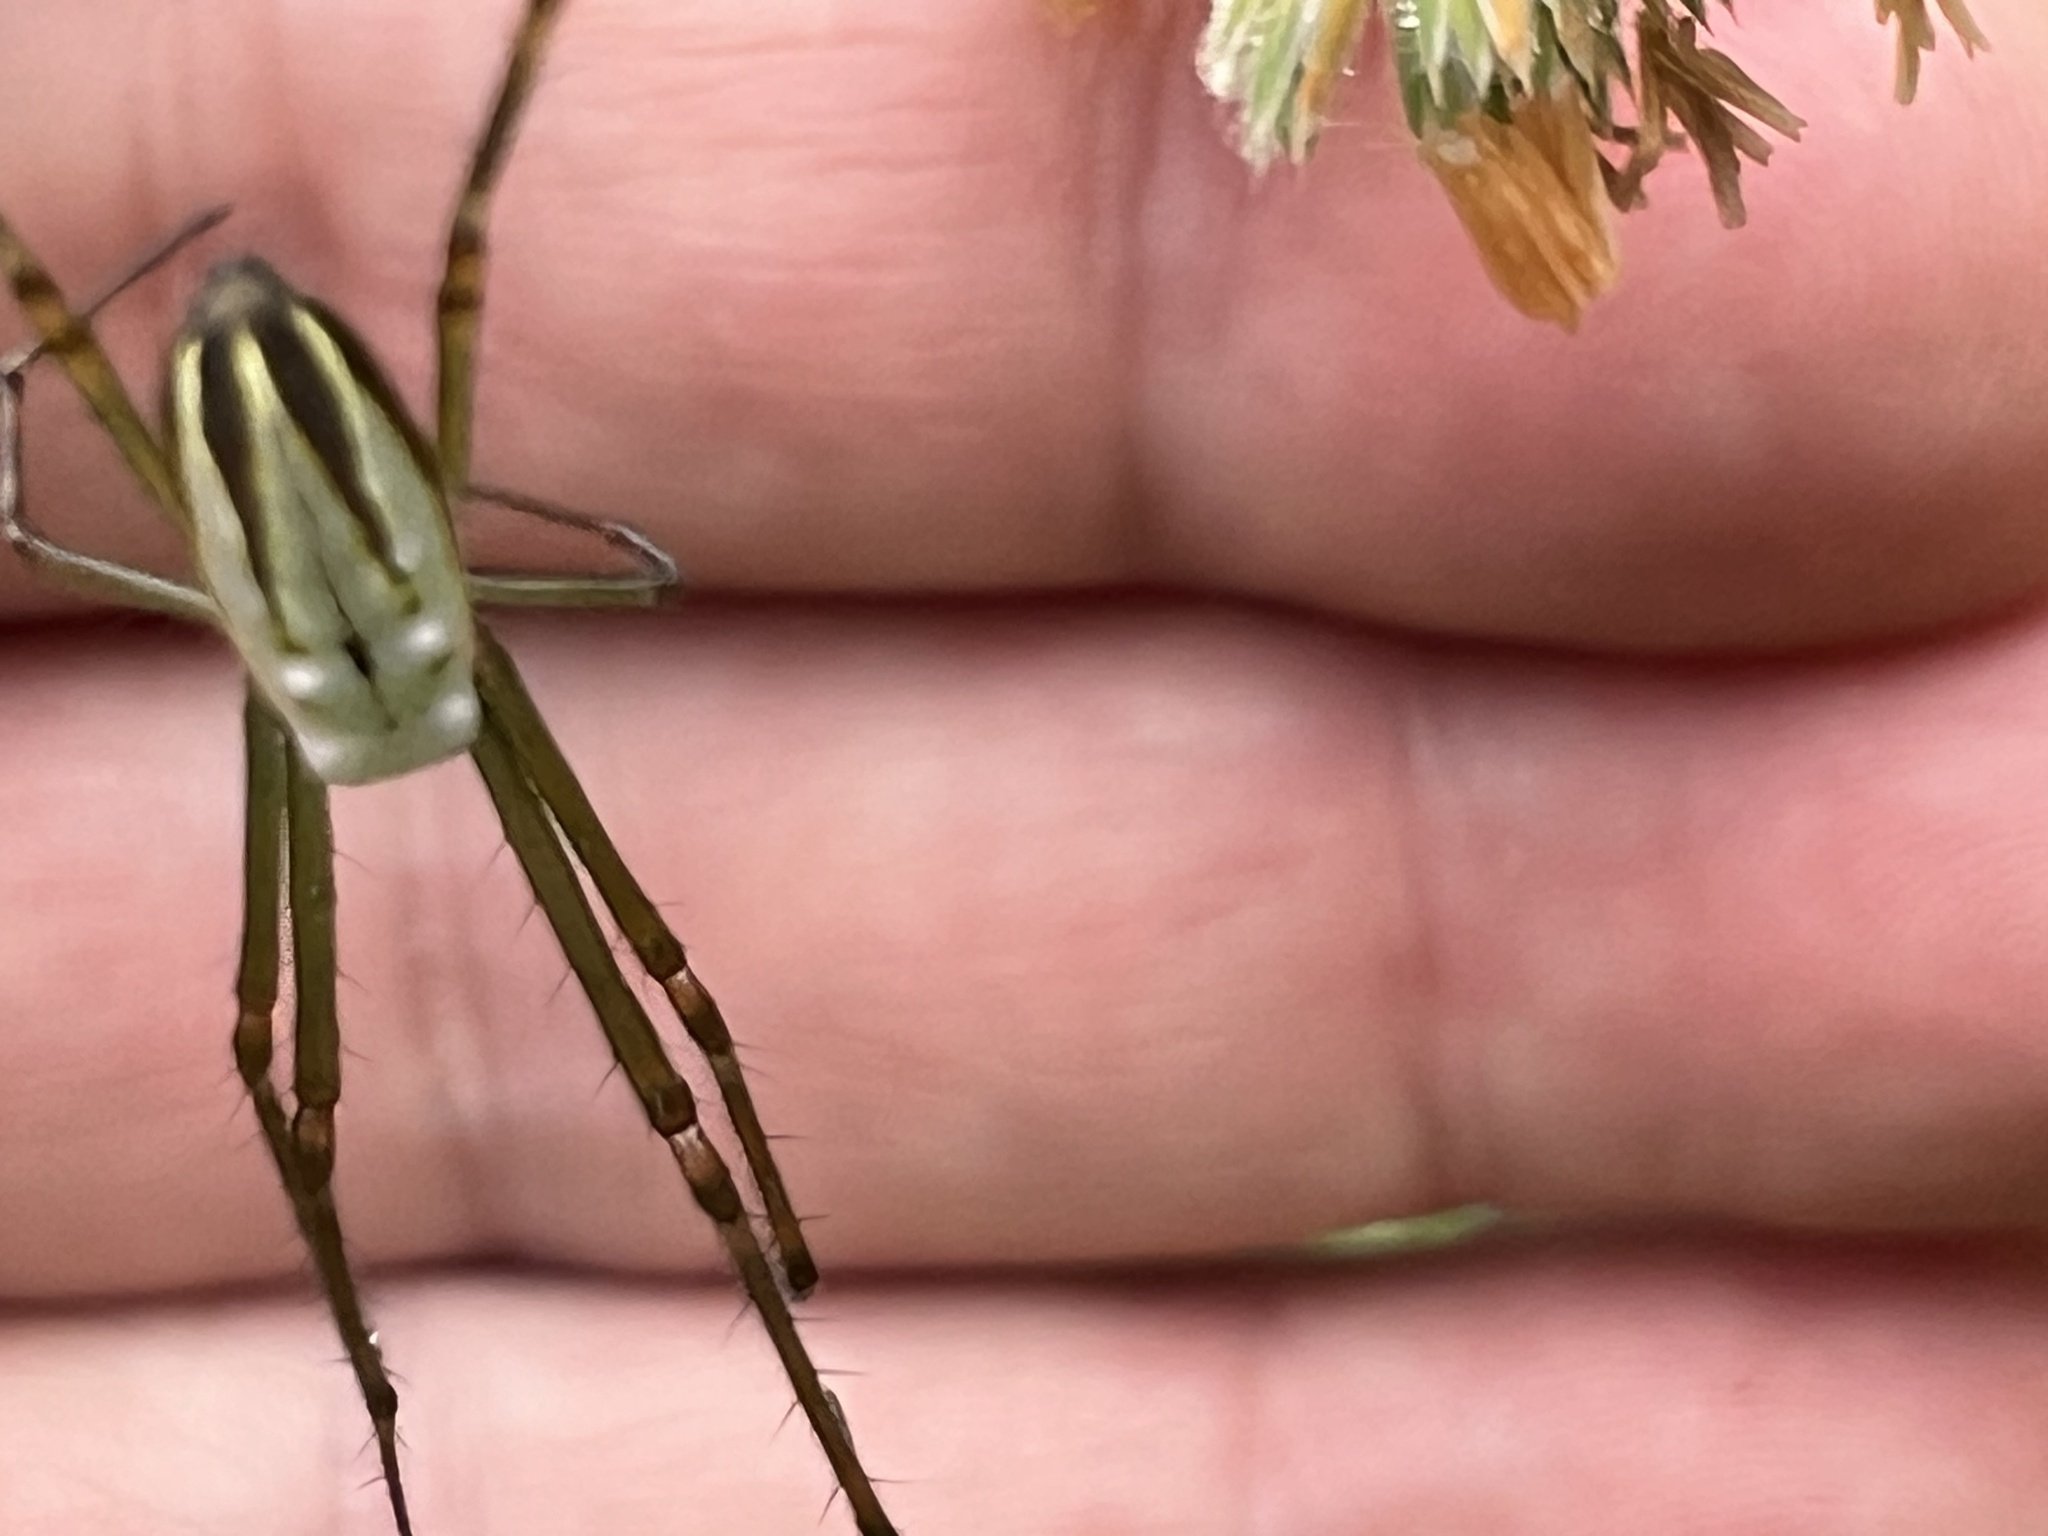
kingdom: Animalia
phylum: Arthropoda
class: Arachnida
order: Araneae
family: Tetragnathidae
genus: Leucauge
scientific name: Leucauge dromedaria
